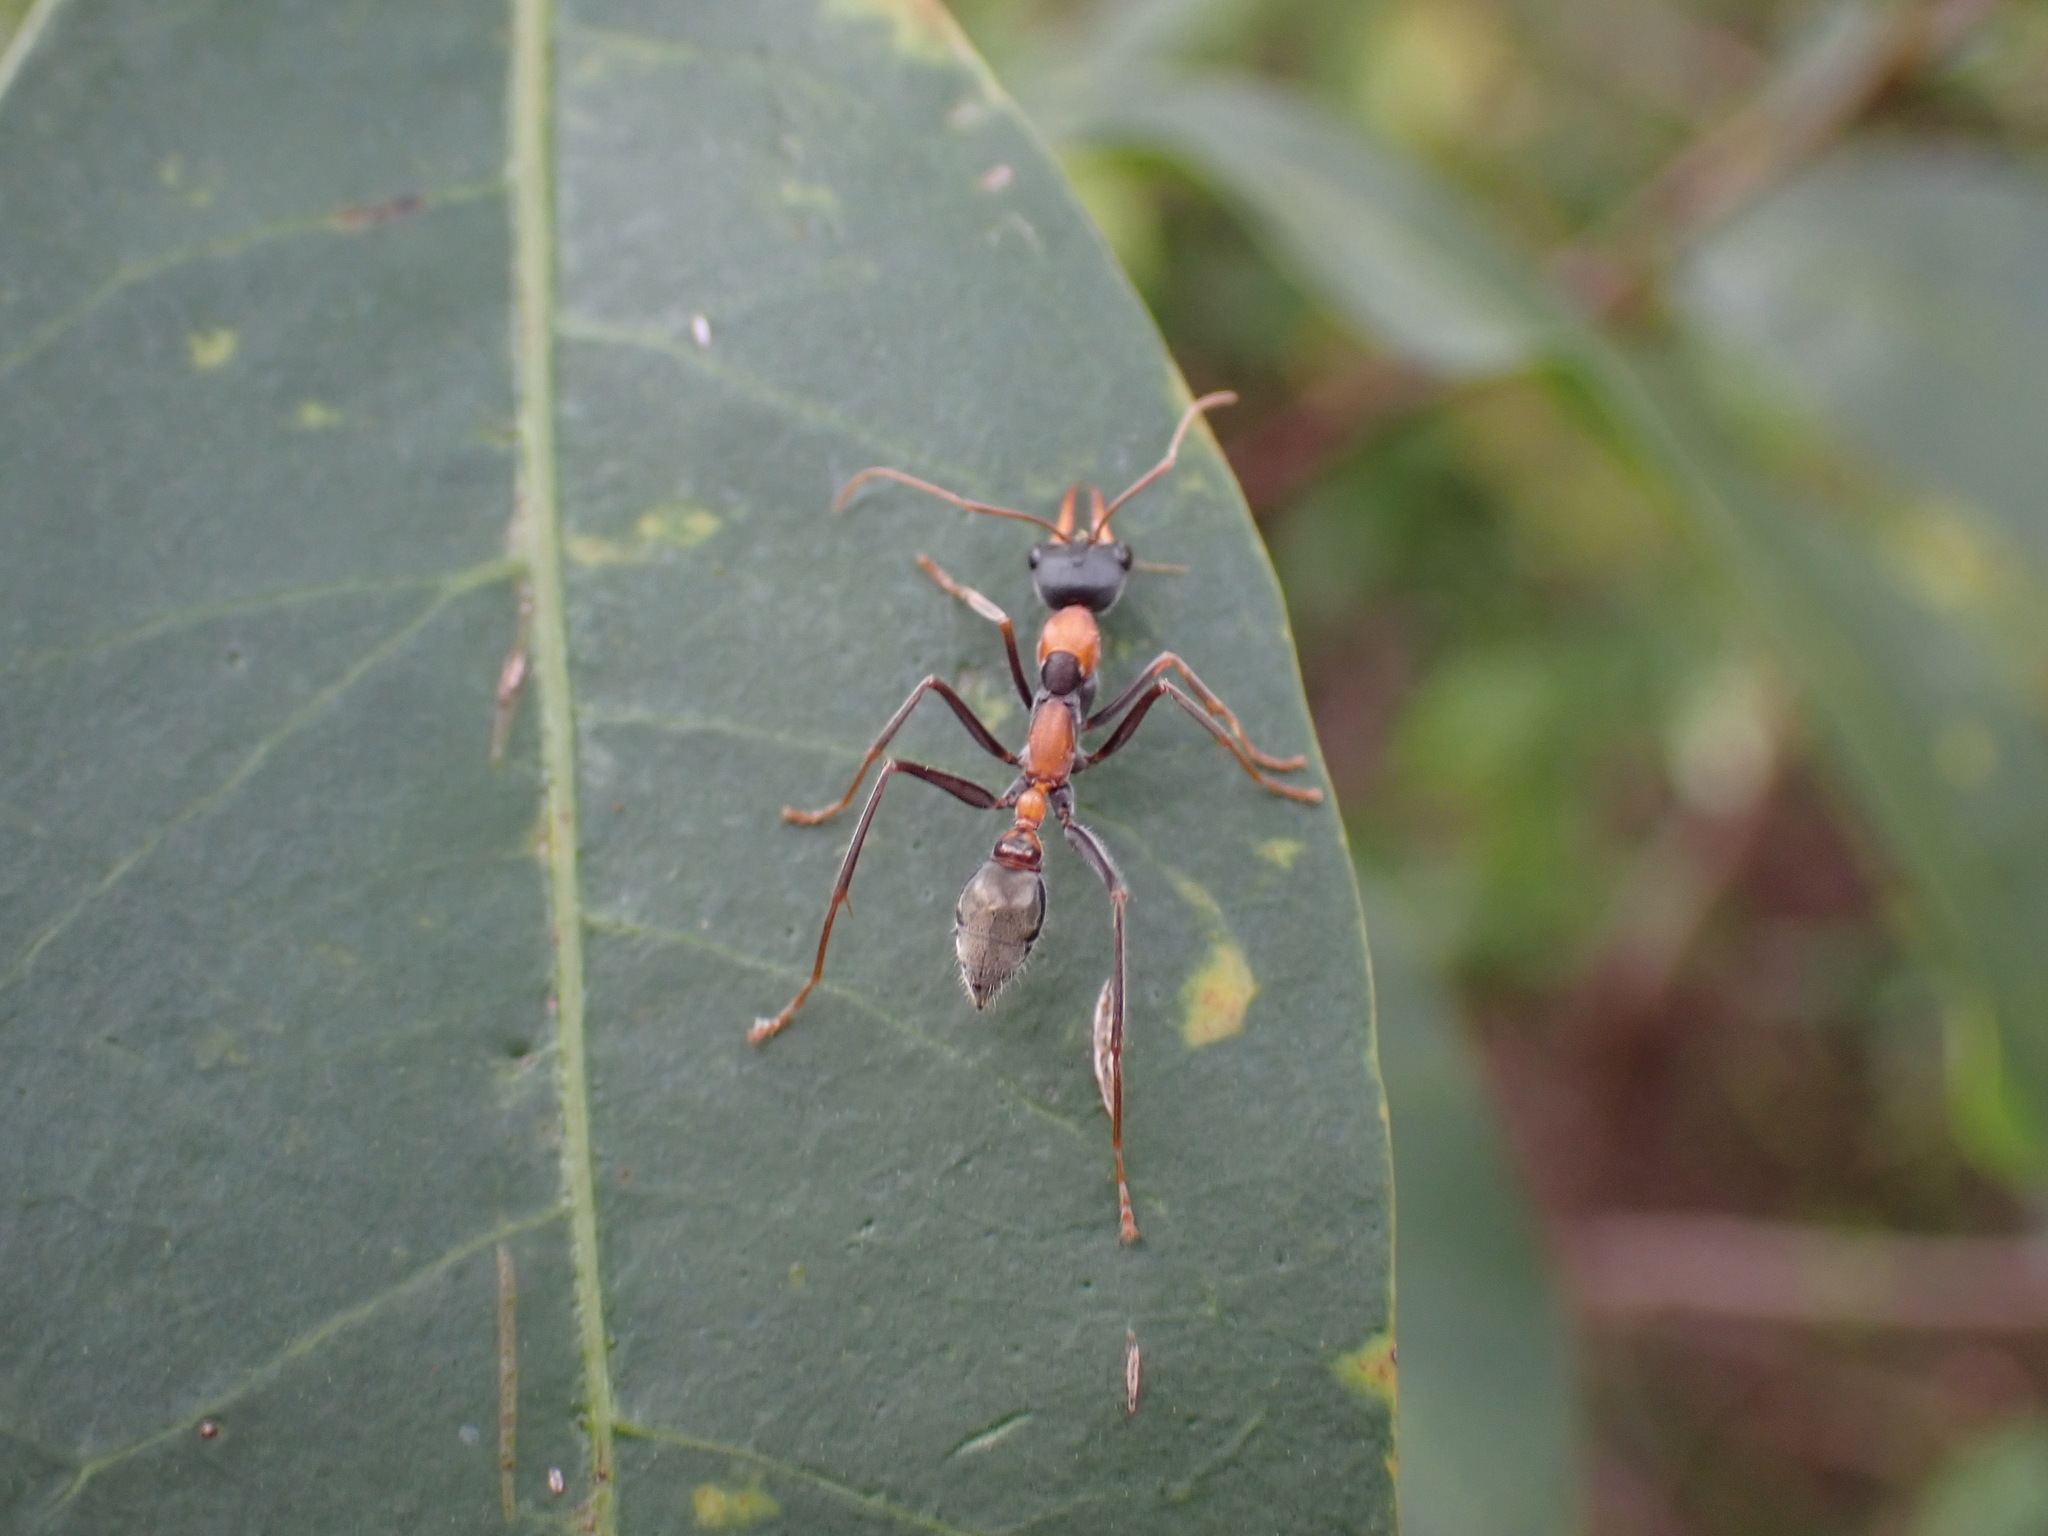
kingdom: Animalia
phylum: Arthropoda
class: Insecta
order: Hymenoptera
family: Formicidae
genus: Myrmecia
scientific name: Myrmecia nigrocincta
